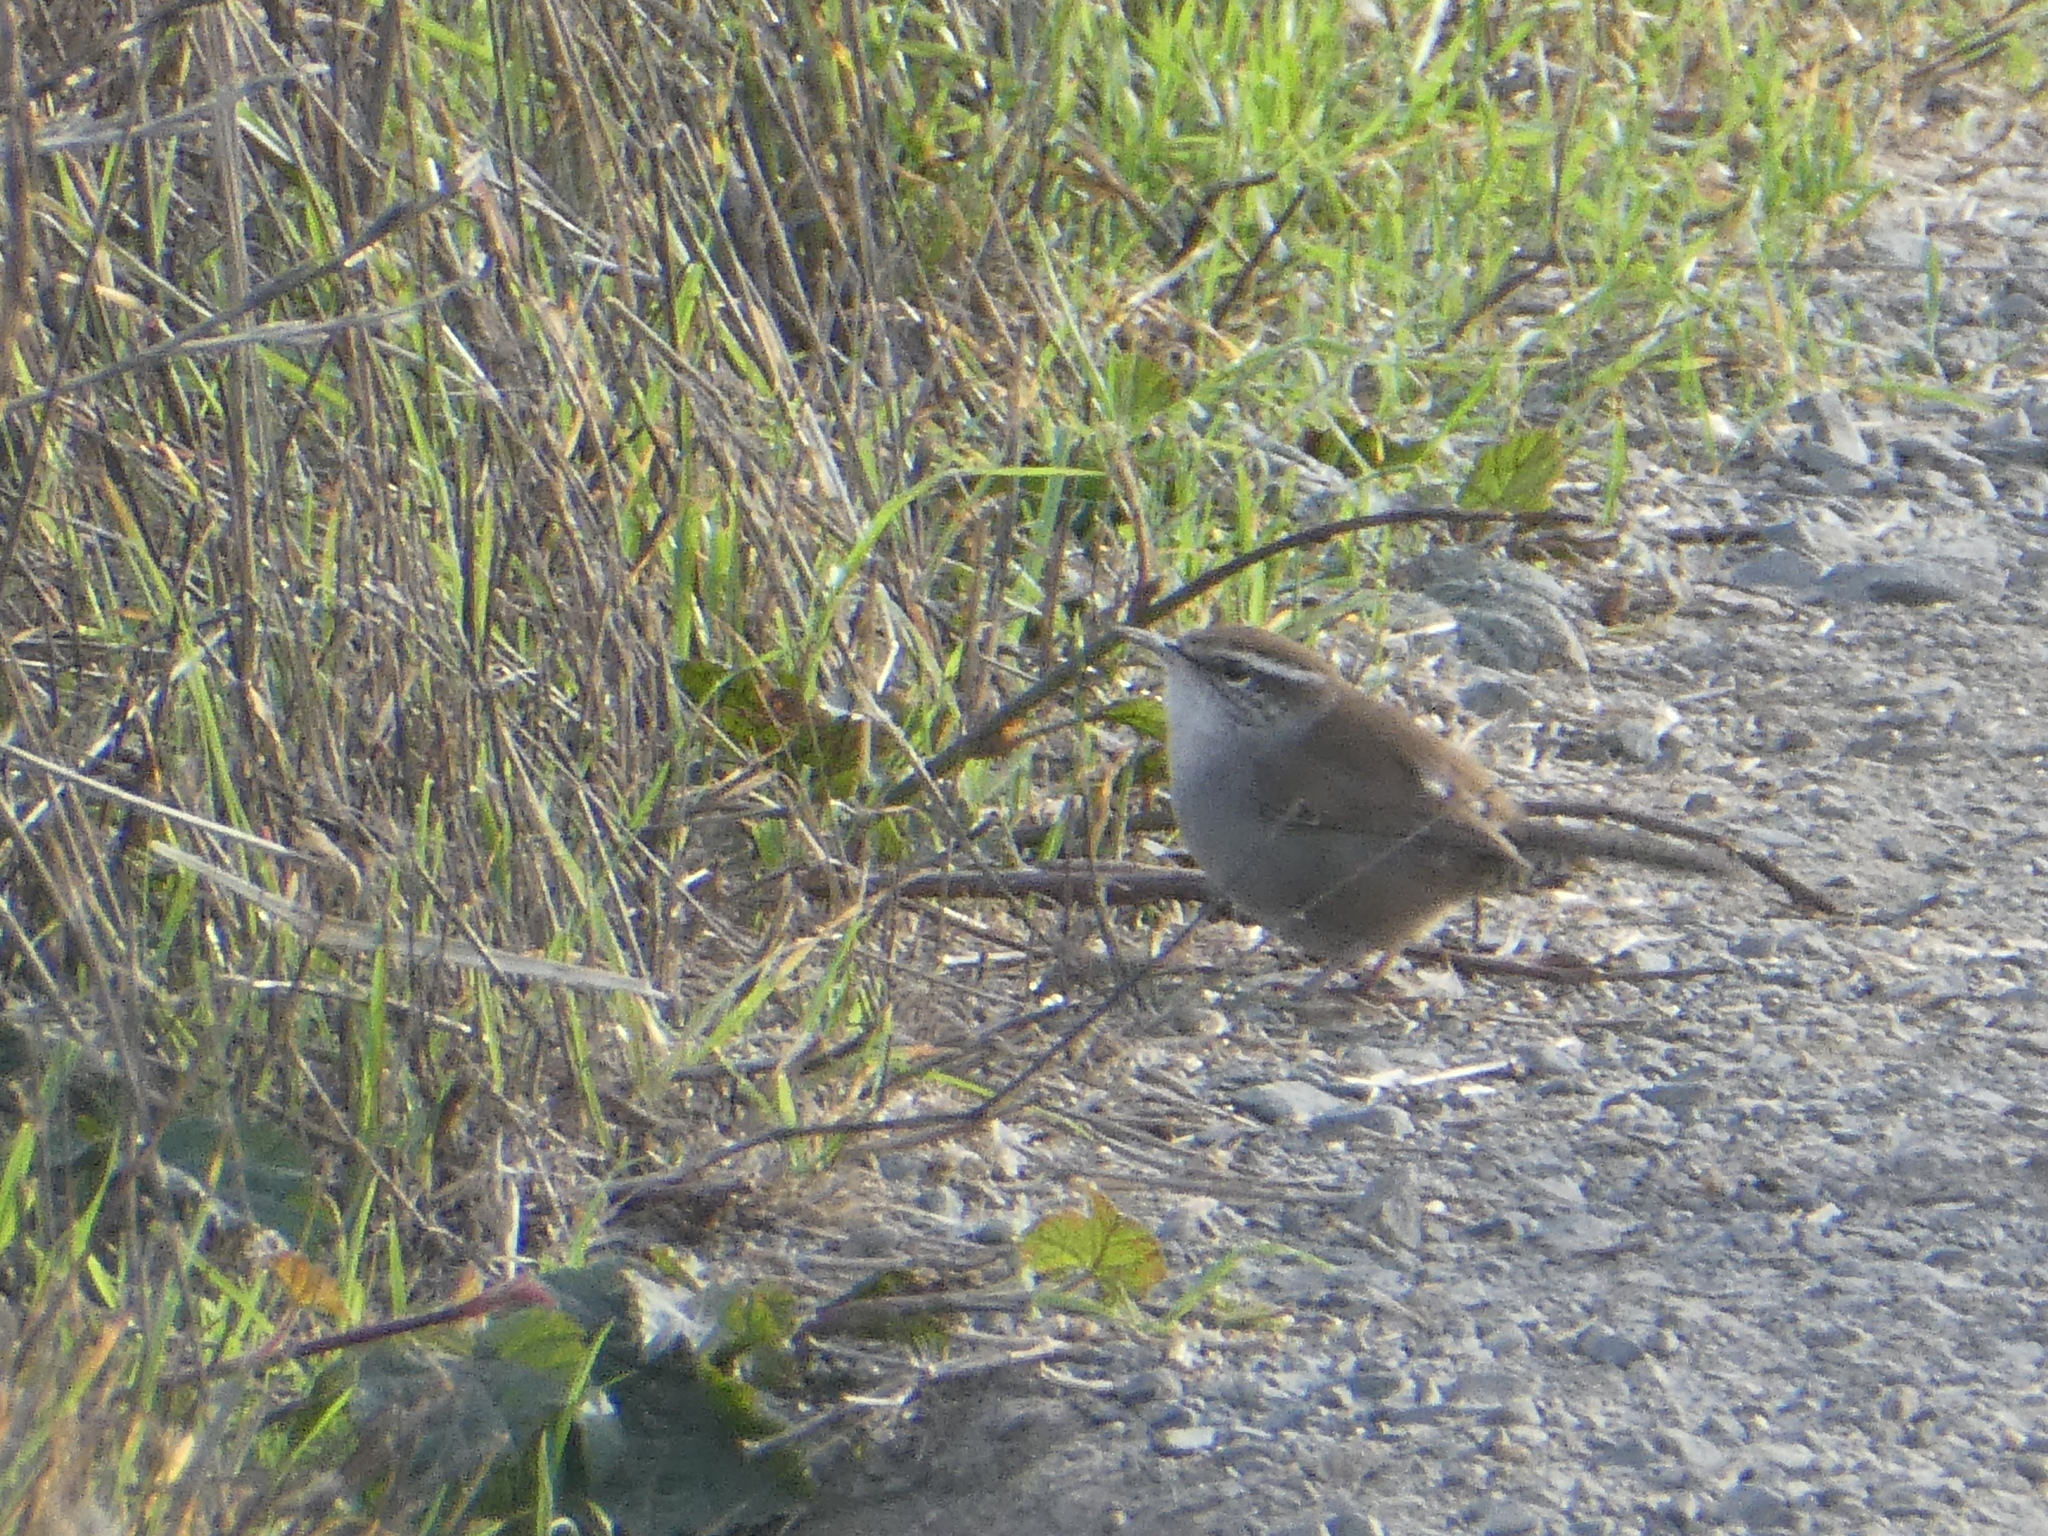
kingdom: Animalia
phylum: Chordata
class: Aves
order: Passeriformes
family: Troglodytidae
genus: Thryomanes
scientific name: Thryomanes bewickii
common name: Bewick's wren
